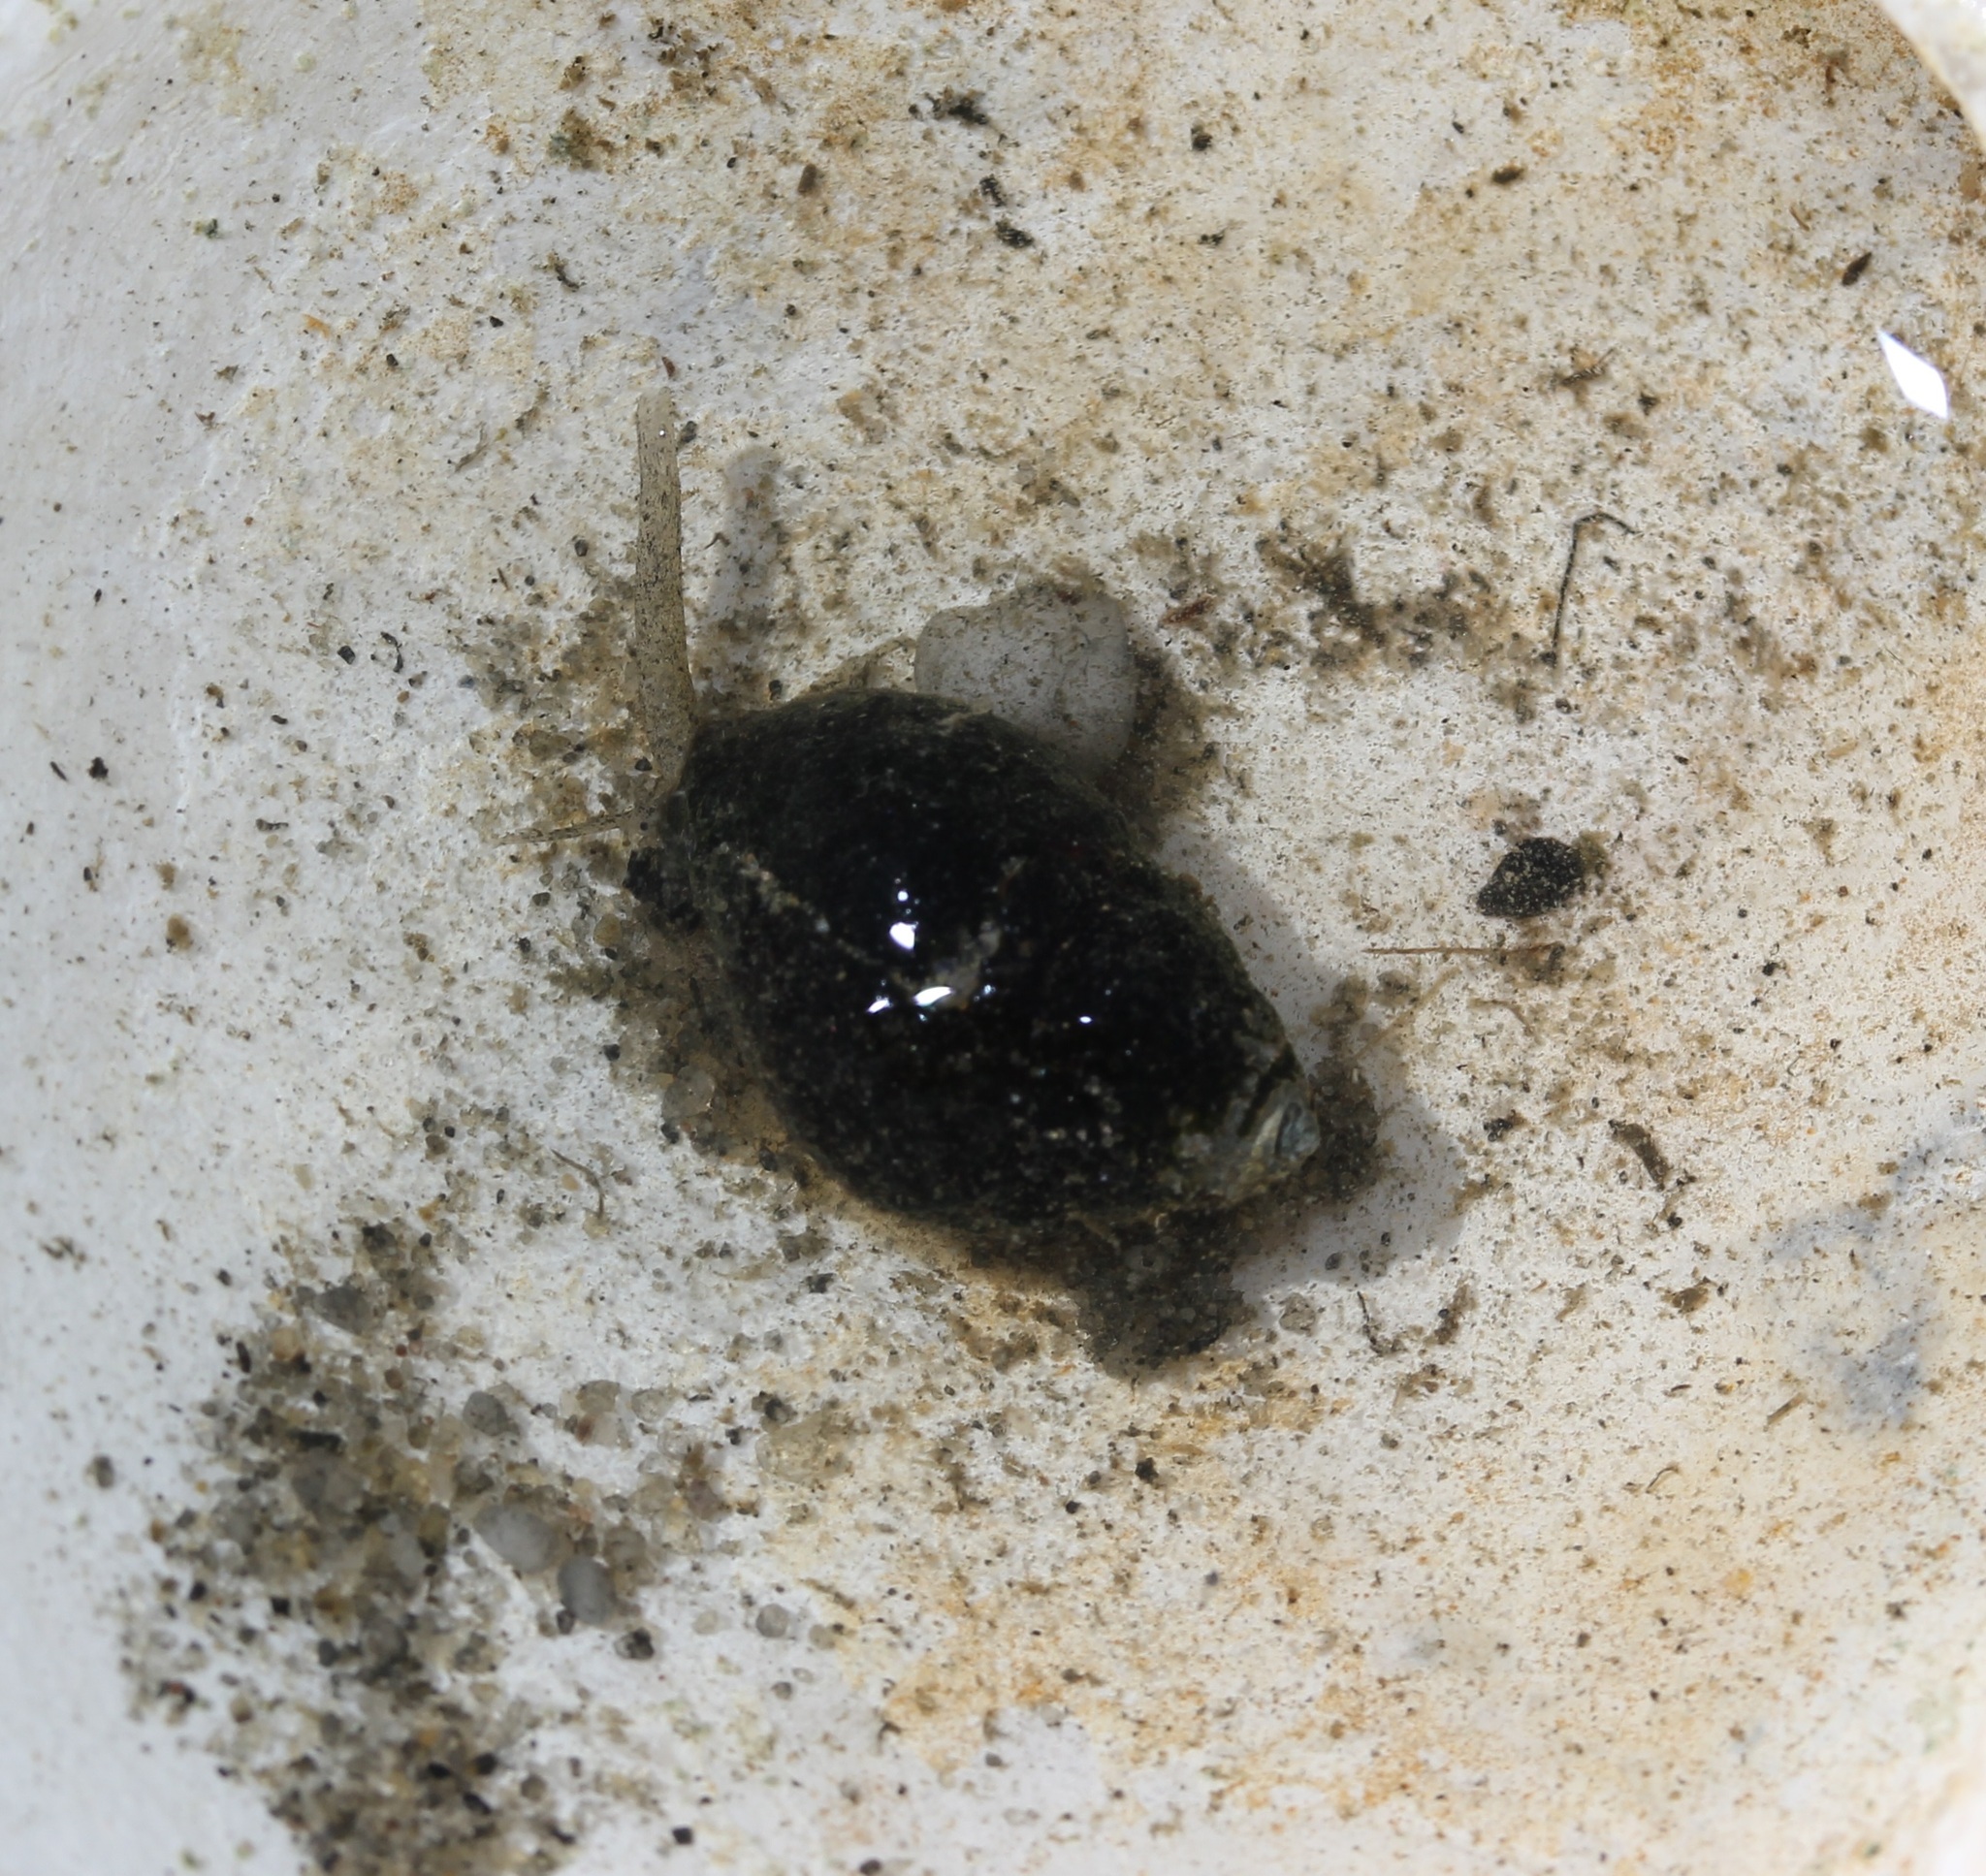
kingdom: Animalia
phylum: Mollusca
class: Gastropoda
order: Neogastropoda
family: Nassariidae
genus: Ilyanassa
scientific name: Ilyanassa obsoleta
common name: Eastern mudsnail
